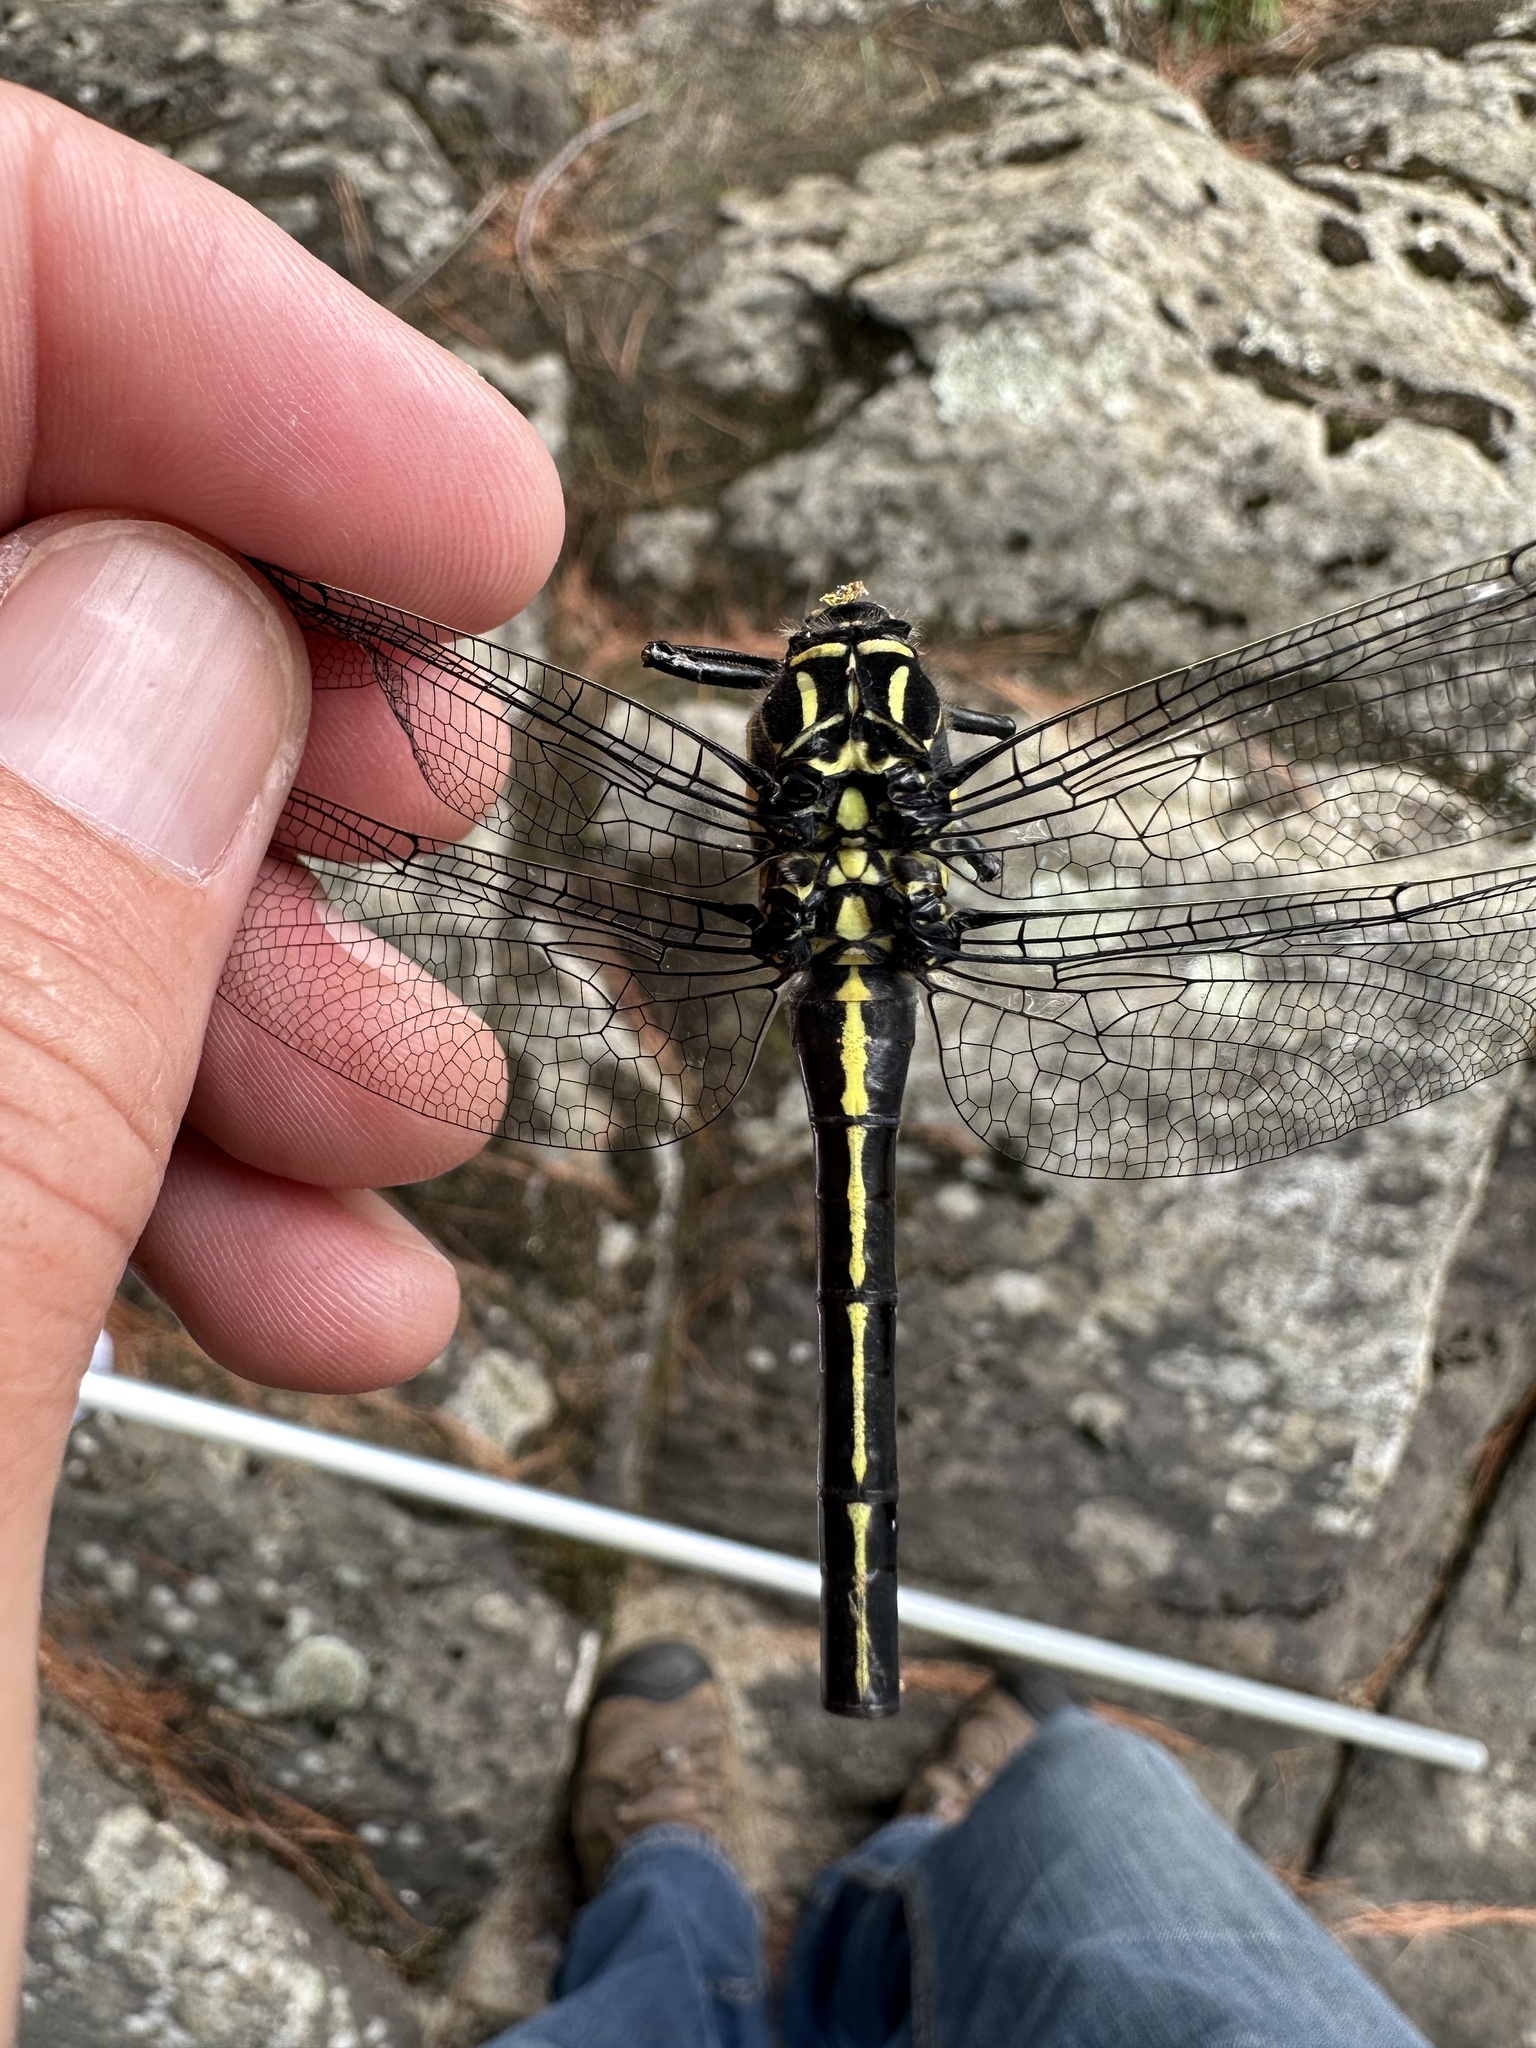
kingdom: Animalia
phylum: Arthropoda
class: Insecta
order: Odonata
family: Gomphidae
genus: Hagenius
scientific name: Hagenius brevistylus
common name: Dragonhunter
